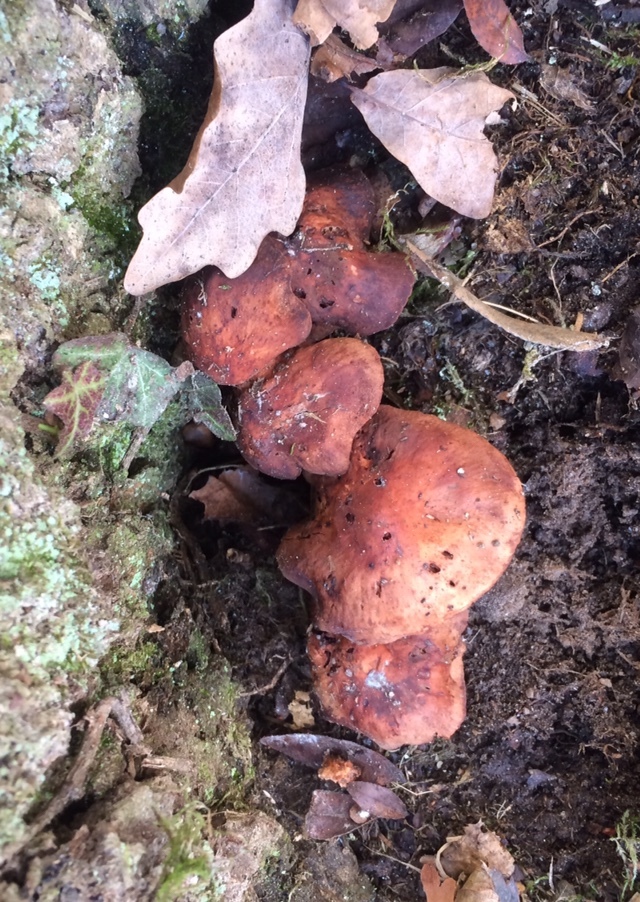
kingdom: Fungi
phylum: Basidiomycota
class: Agaricomycetes
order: Agaricales
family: Omphalotaceae
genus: Gymnopus
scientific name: Gymnopus fusipes
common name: Spindle shank
